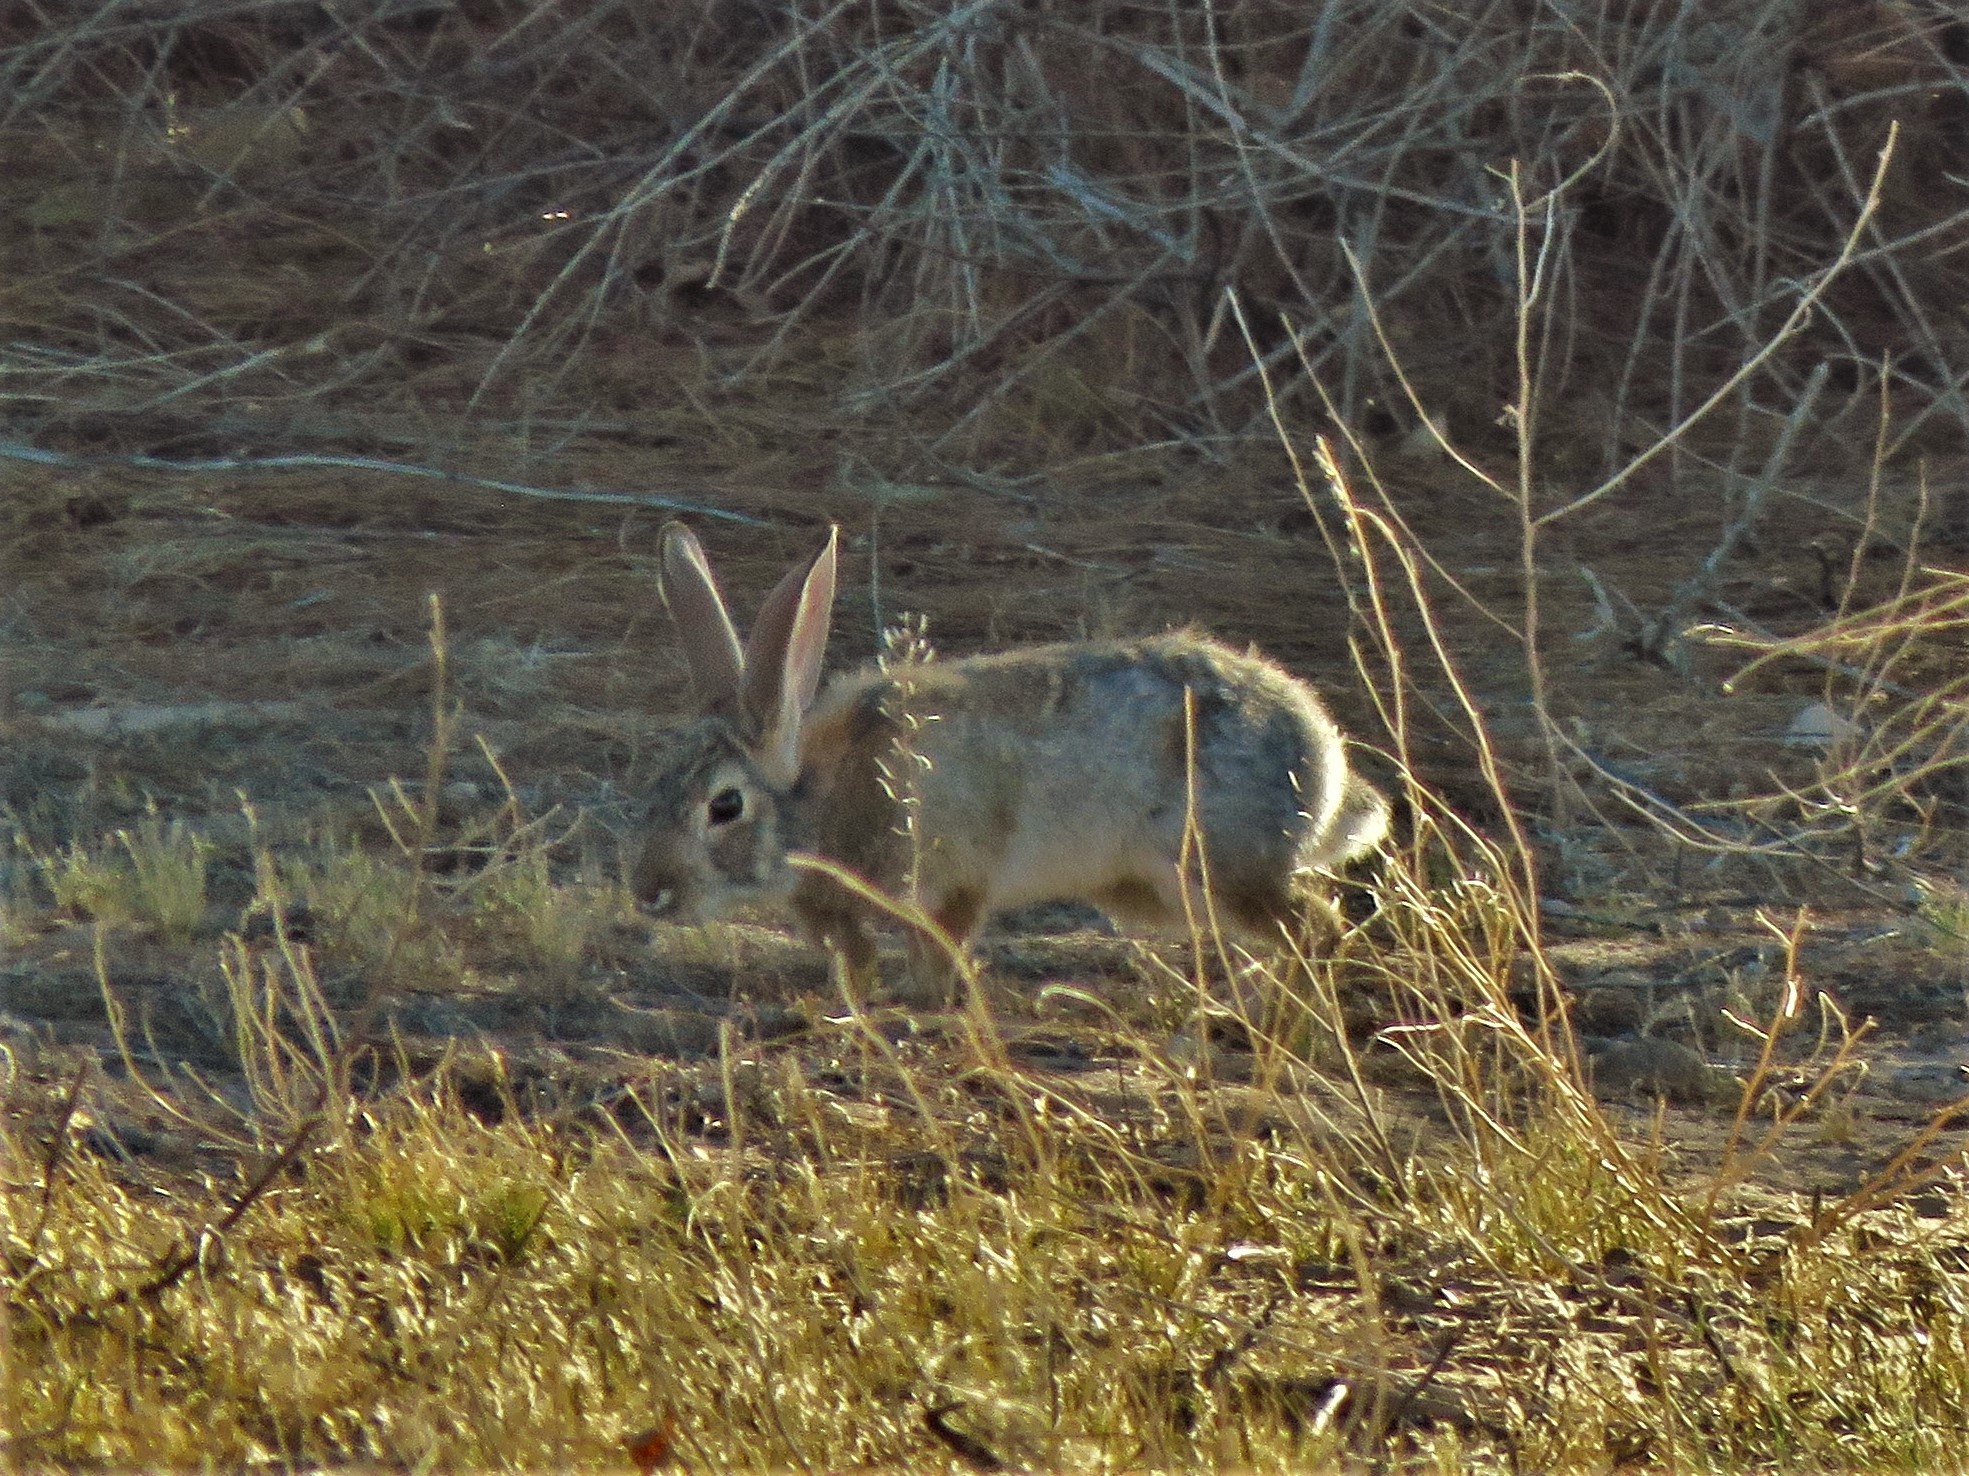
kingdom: Animalia
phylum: Chordata
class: Mammalia
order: Lagomorpha
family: Leporidae
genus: Sylvilagus
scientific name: Sylvilagus audubonii
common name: Desert cottontail
